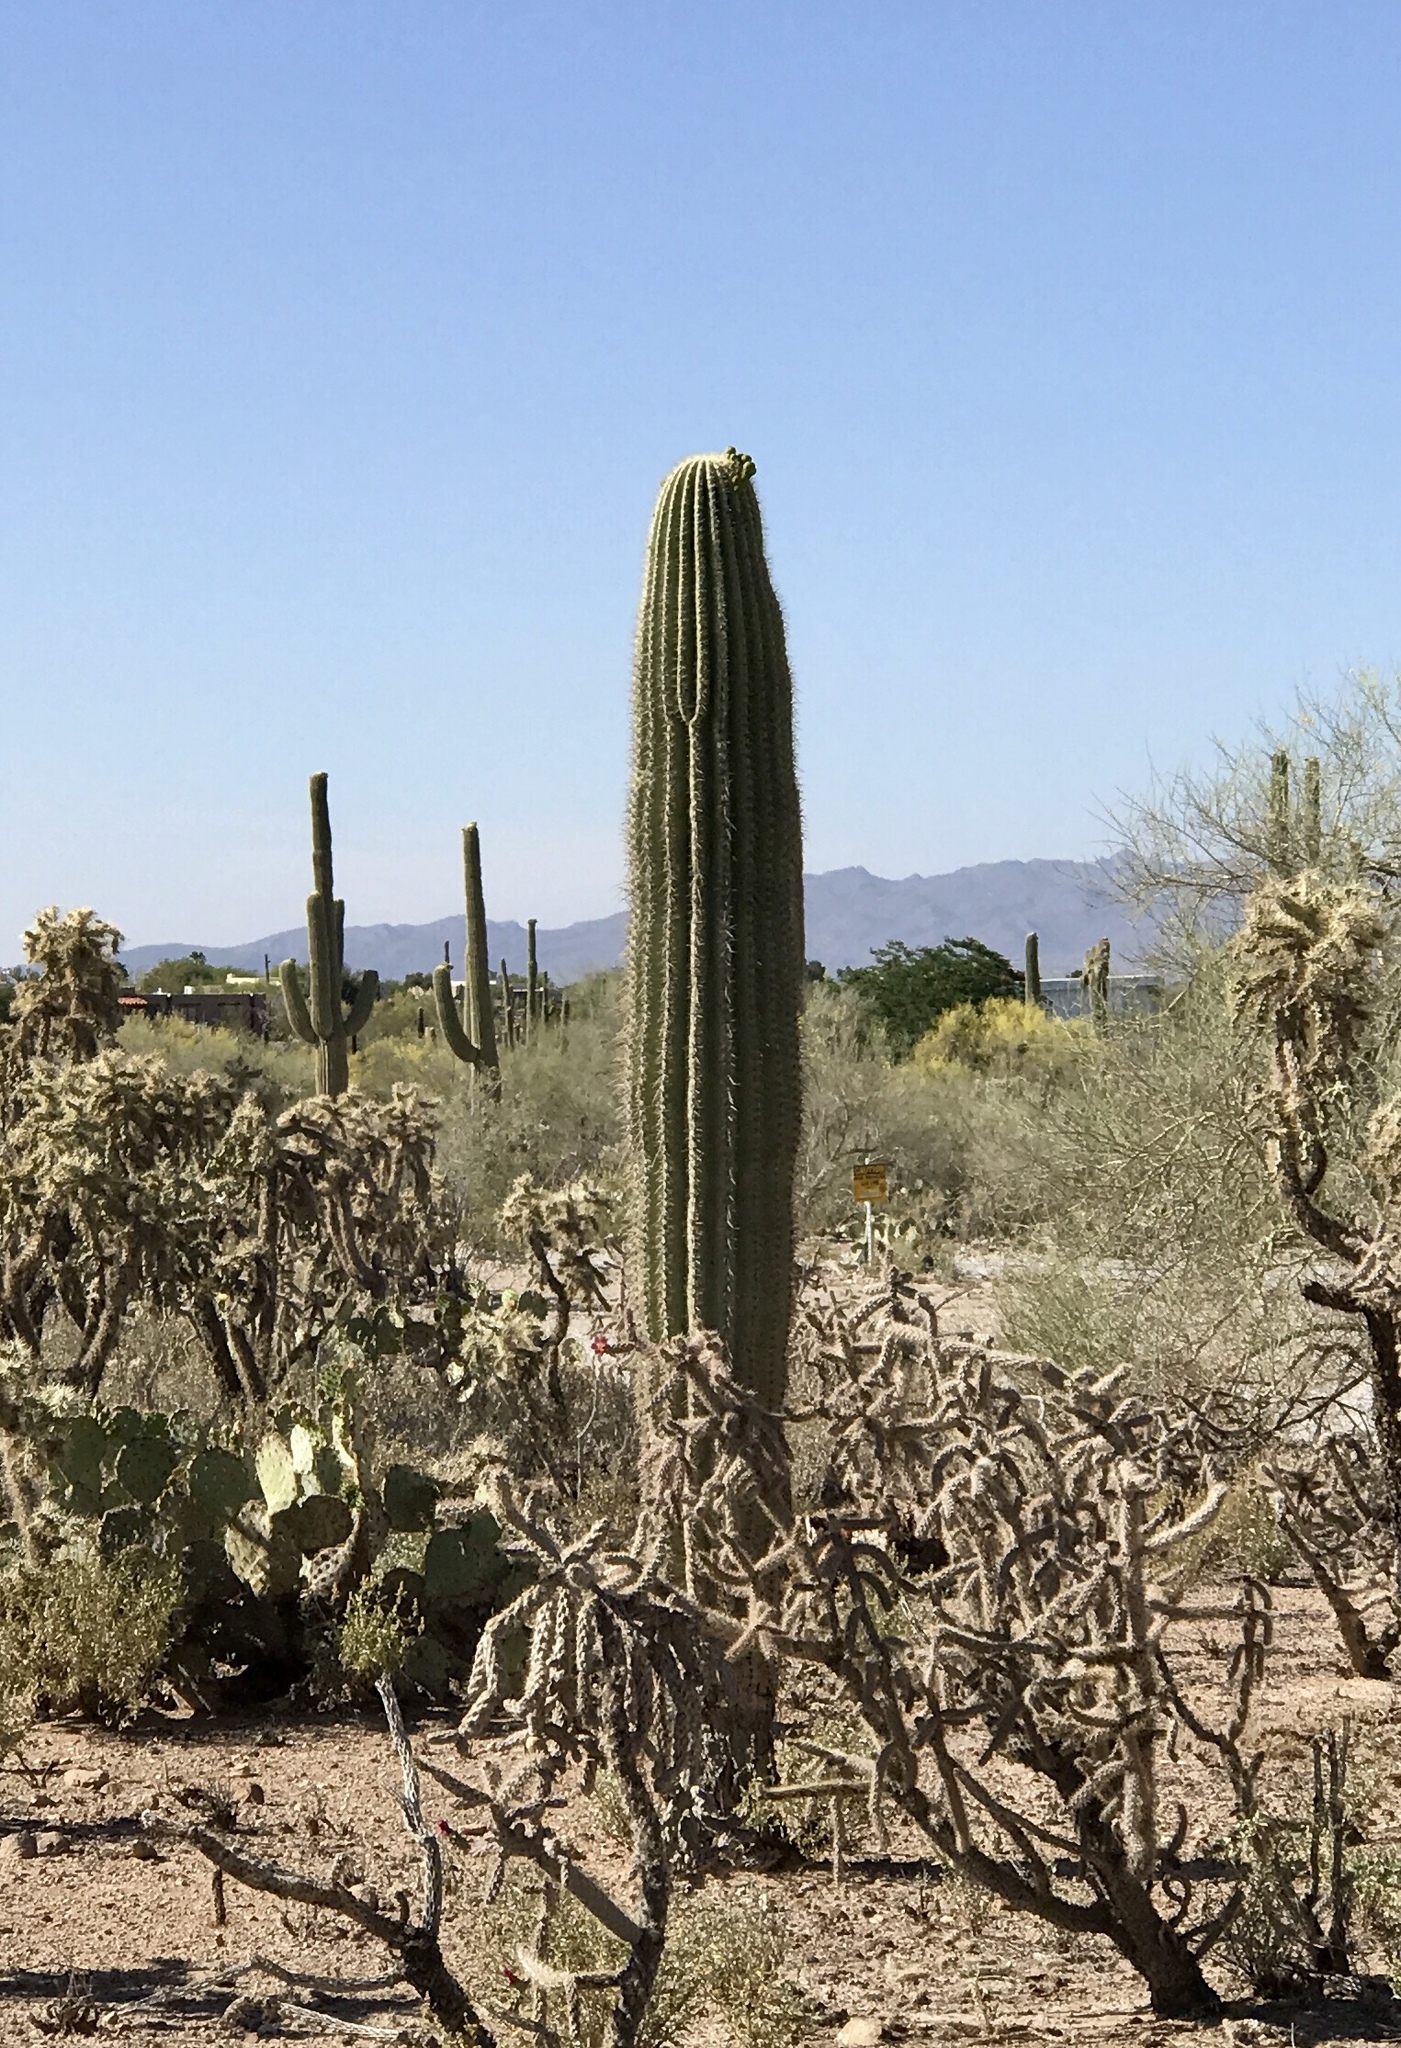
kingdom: Plantae
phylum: Tracheophyta
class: Magnoliopsida
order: Caryophyllales
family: Cactaceae
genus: Carnegiea
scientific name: Carnegiea gigantea
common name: Saguaro
